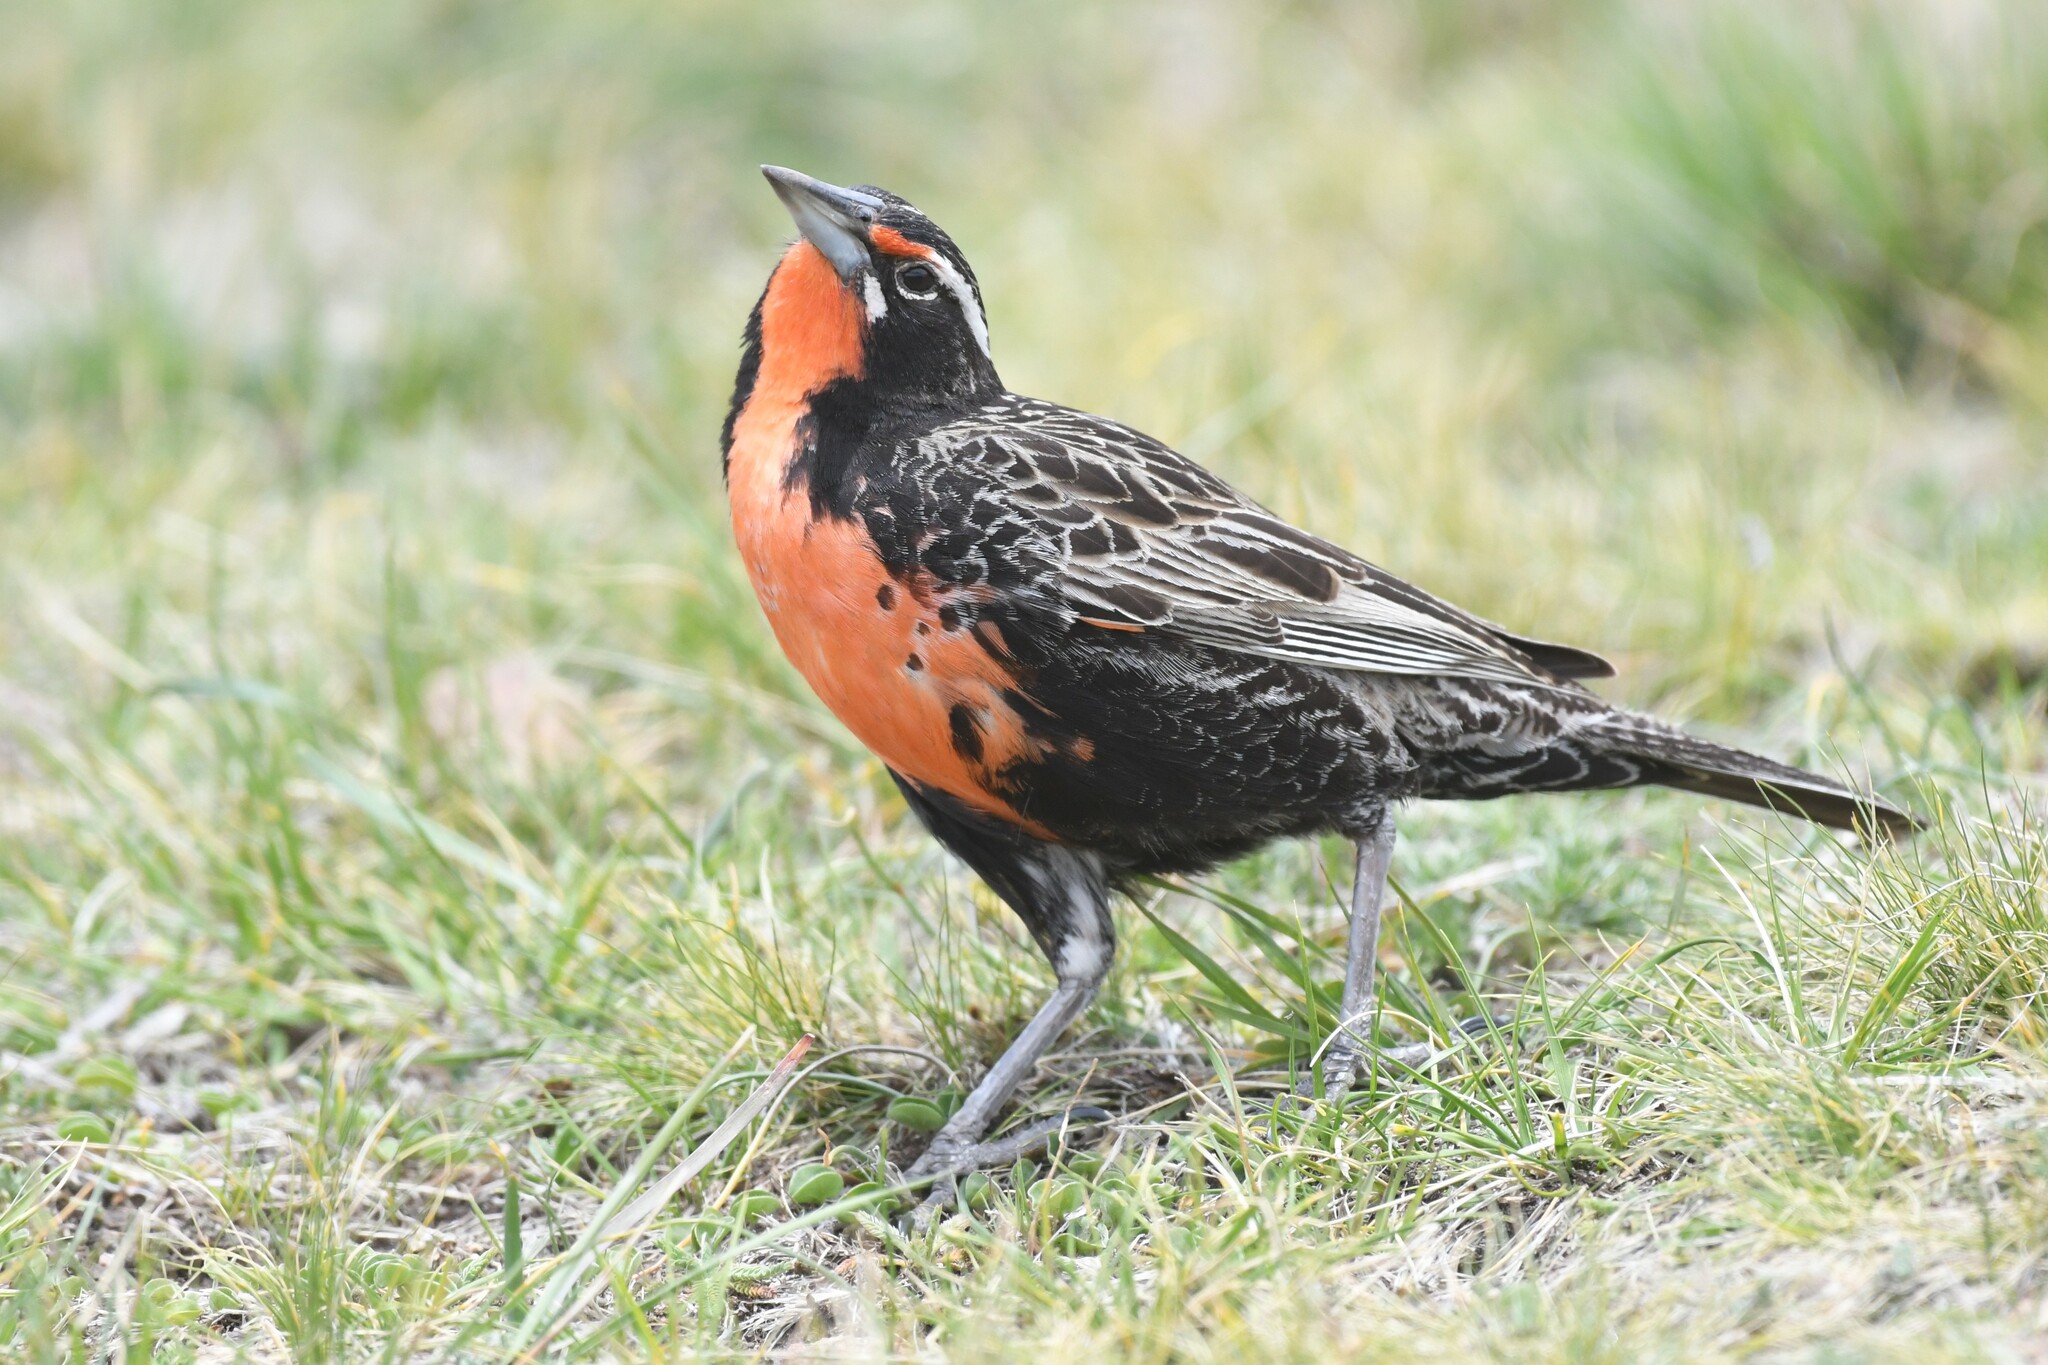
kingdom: Animalia
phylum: Chordata
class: Aves
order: Passeriformes
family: Icteridae
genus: Sturnella
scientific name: Sturnella loyca
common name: Long-tailed meadowlark
